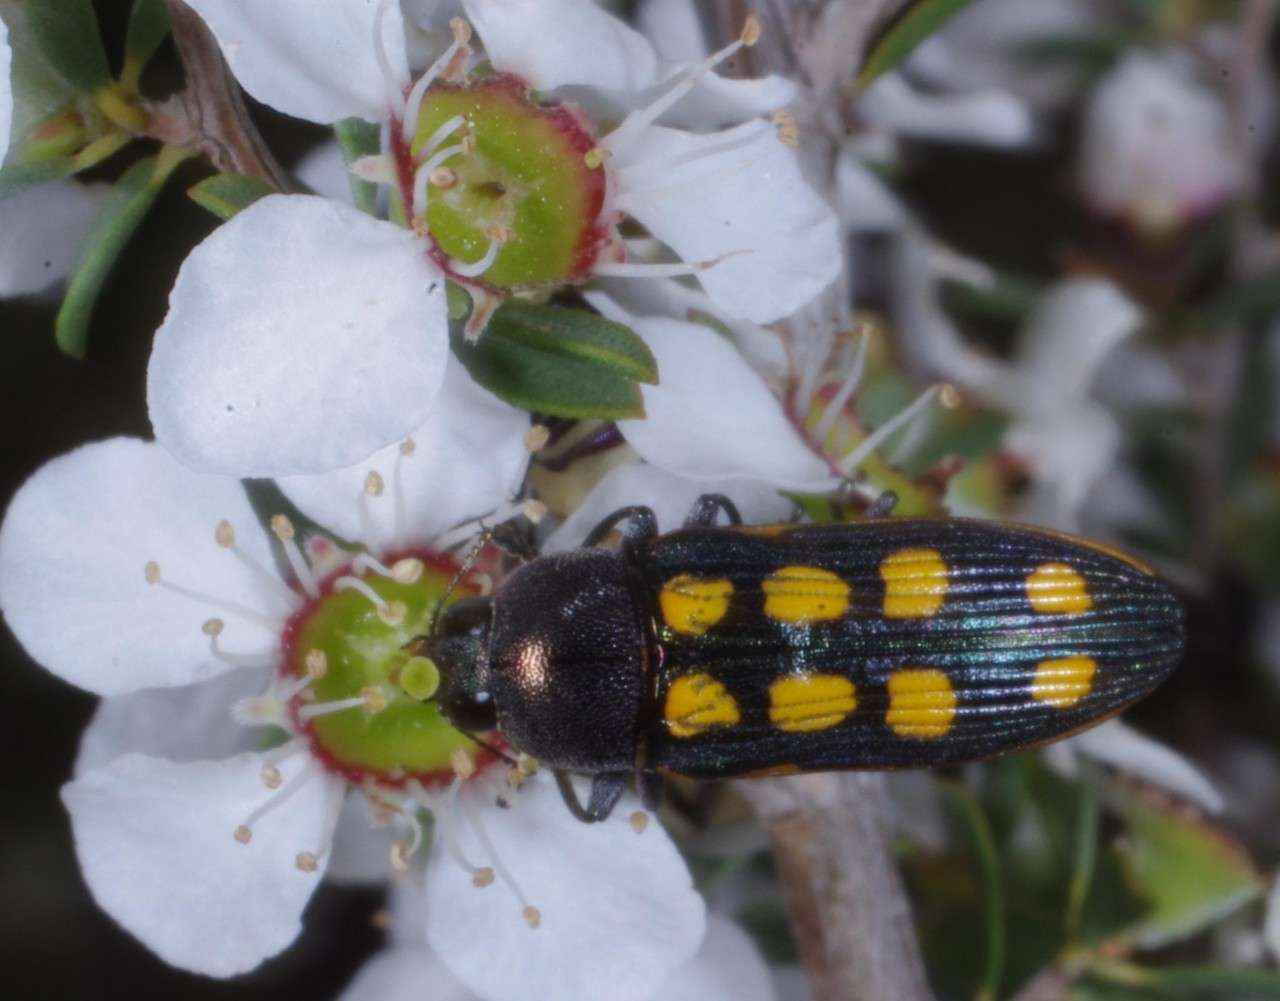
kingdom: Animalia
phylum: Arthropoda
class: Insecta
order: Coleoptera
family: Buprestidae
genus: Castiarina
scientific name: Castiarina xanthopilosa
